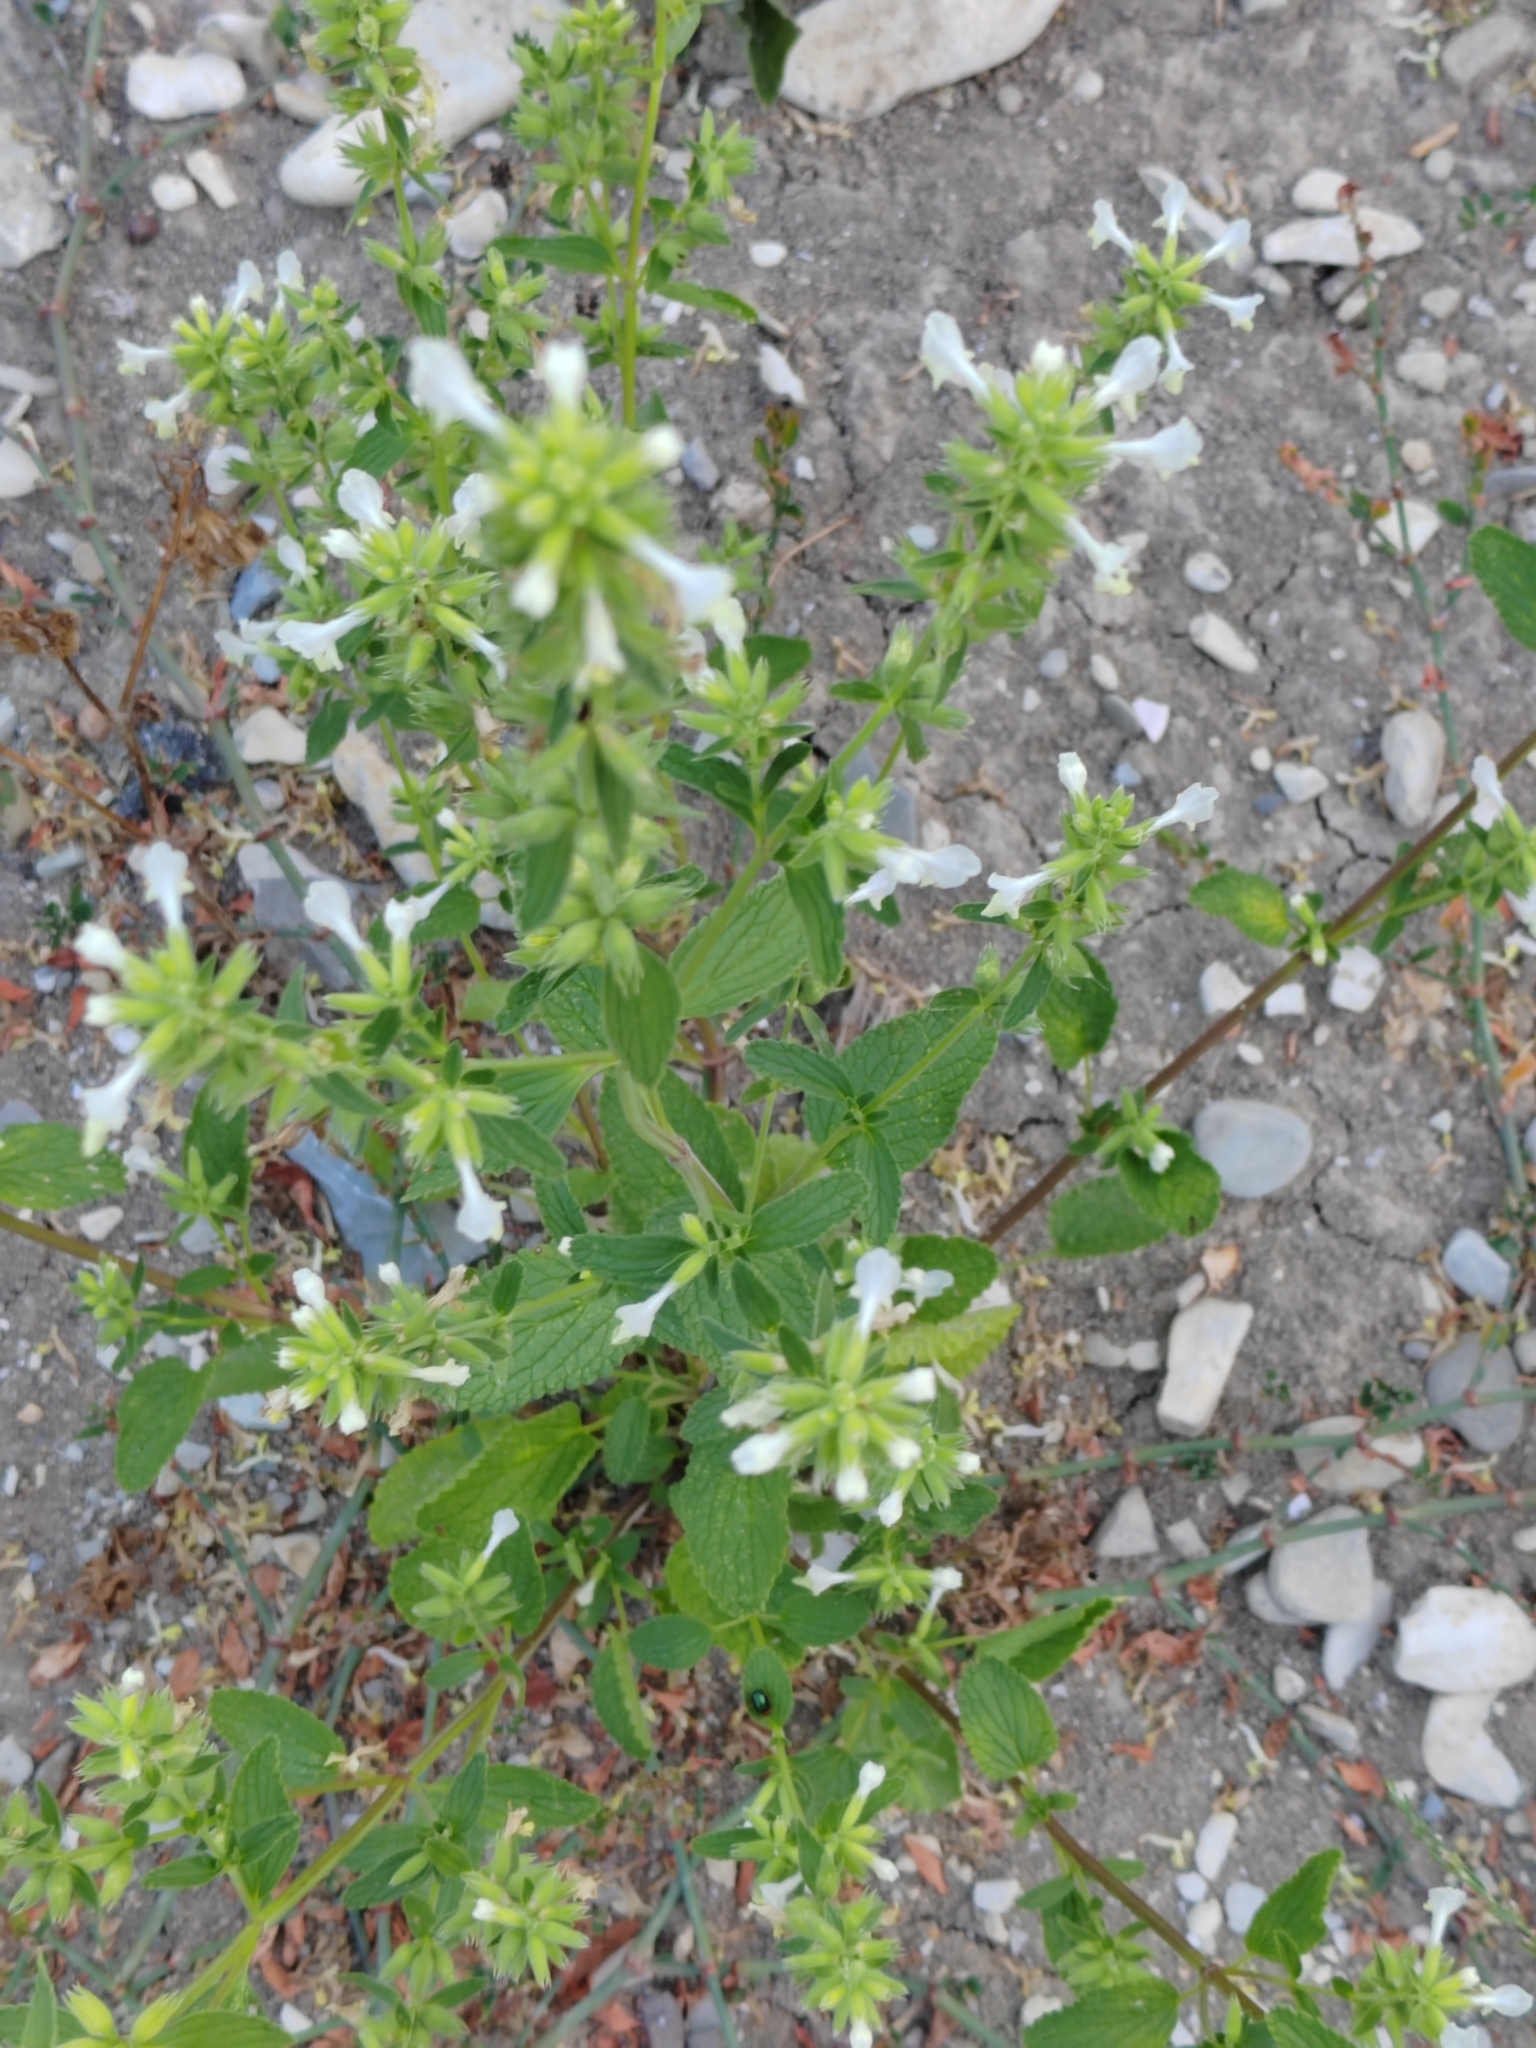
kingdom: Plantae
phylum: Tracheophyta
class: Magnoliopsida
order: Lamiales
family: Lamiaceae
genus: Stachys
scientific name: Stachys annua
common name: Annual yellow-woundwort
